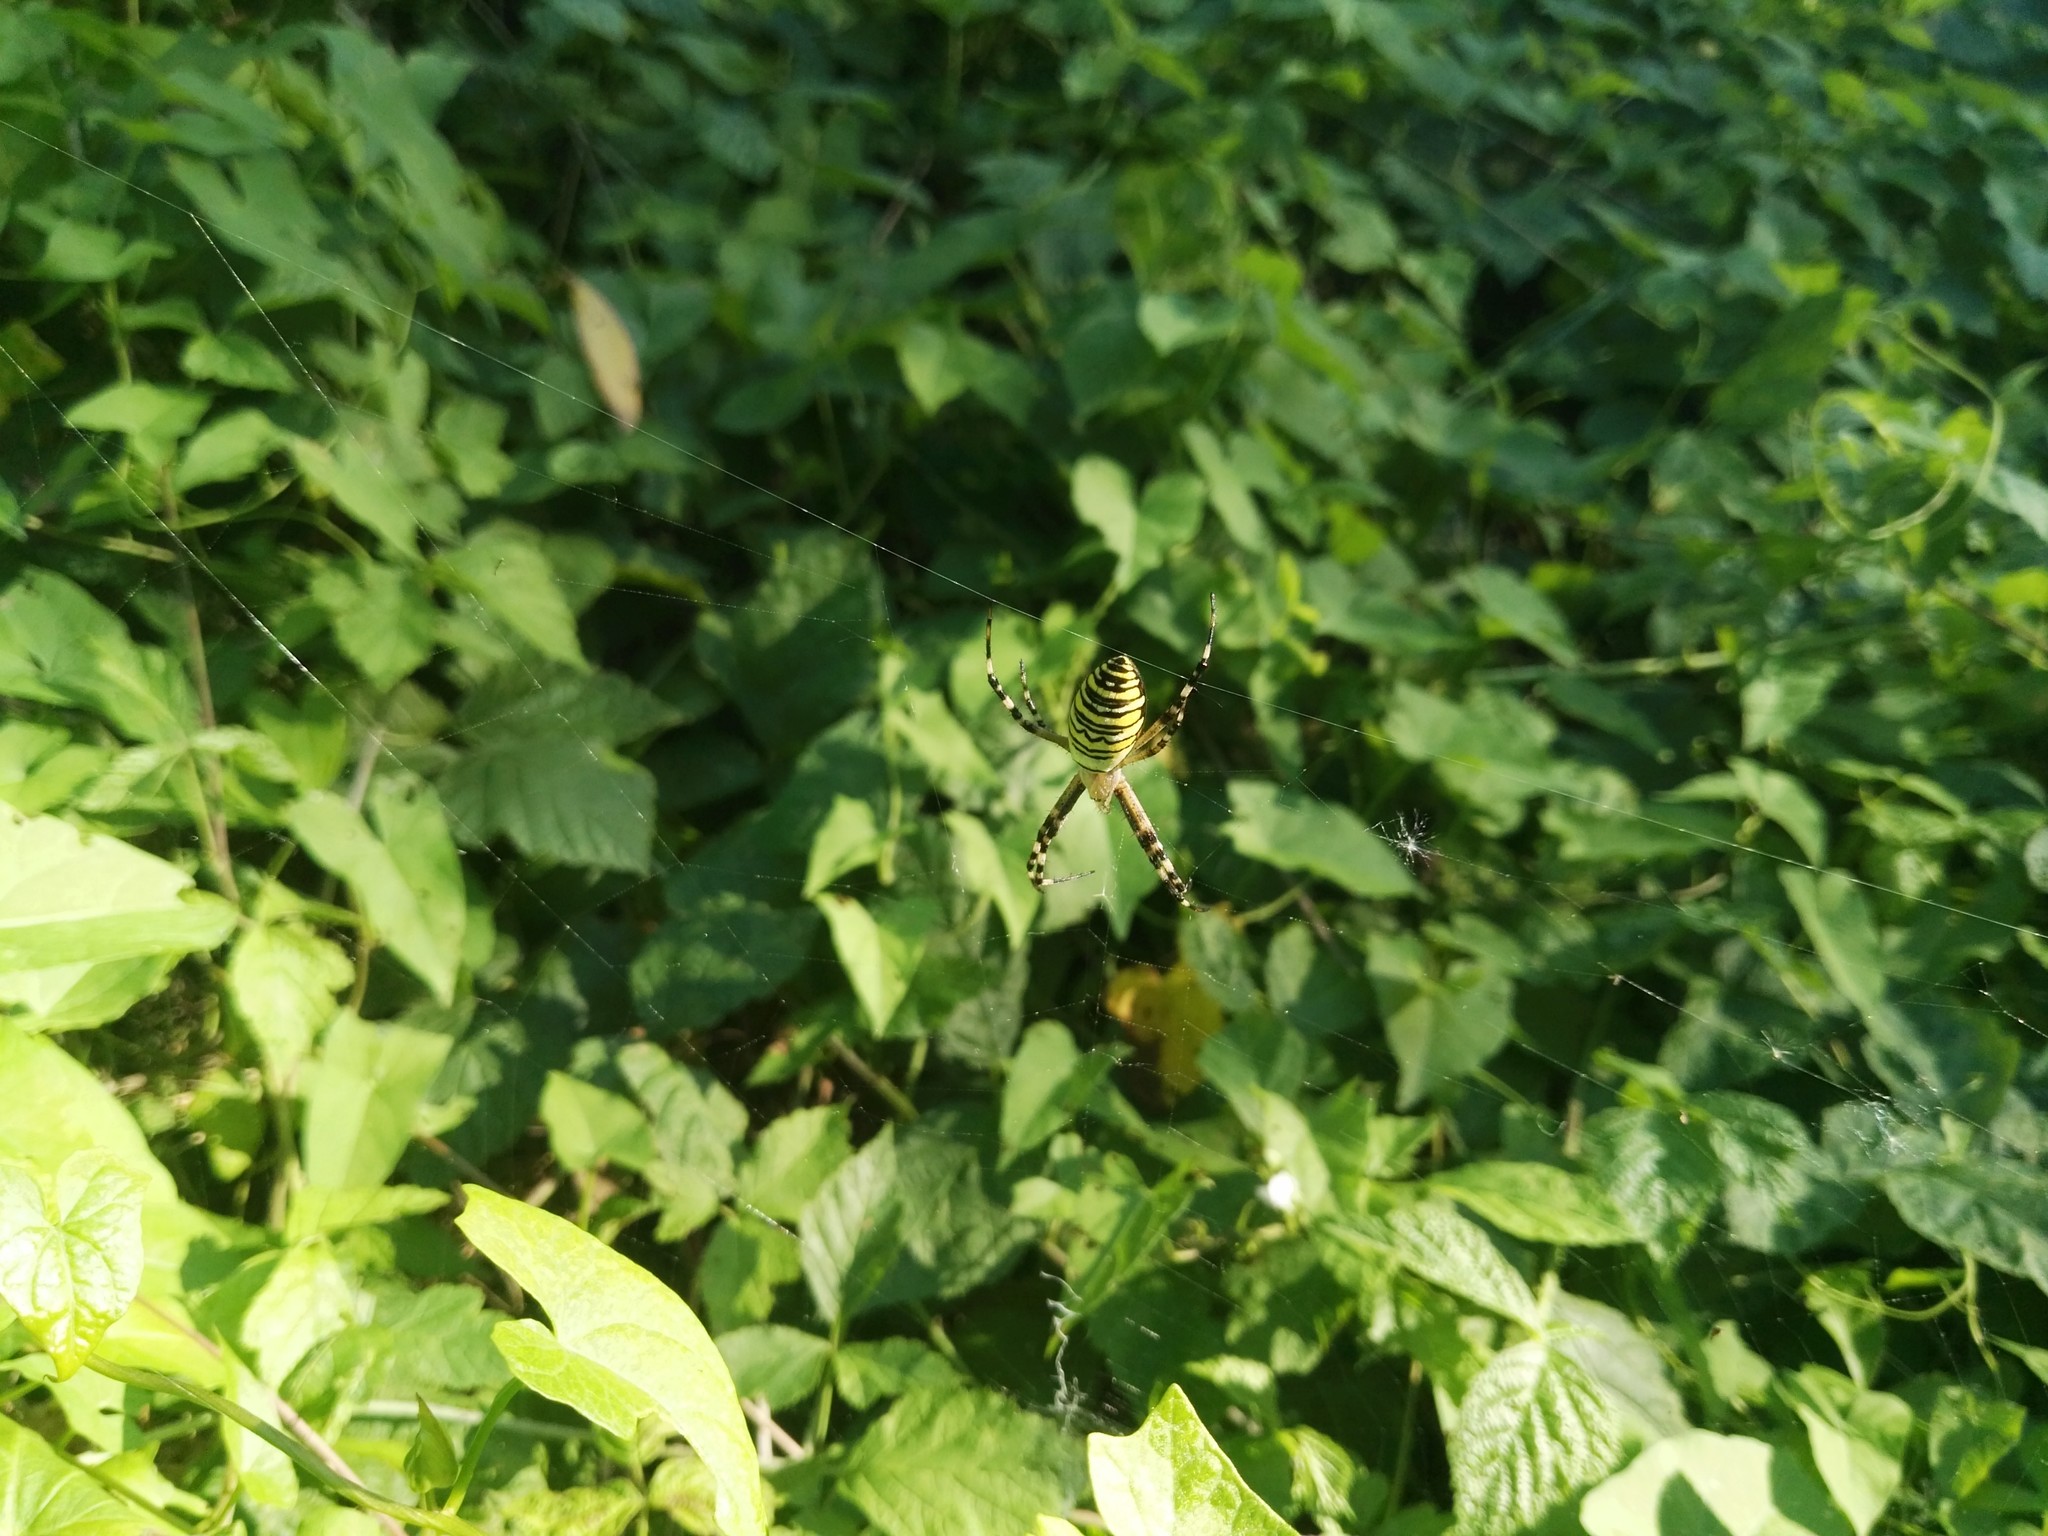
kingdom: Animalia
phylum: Arthropoda
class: Arachnida
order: Araneae
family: Araneidae
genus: Argiope
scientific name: Argiope bruennichi
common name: Wasp spider
